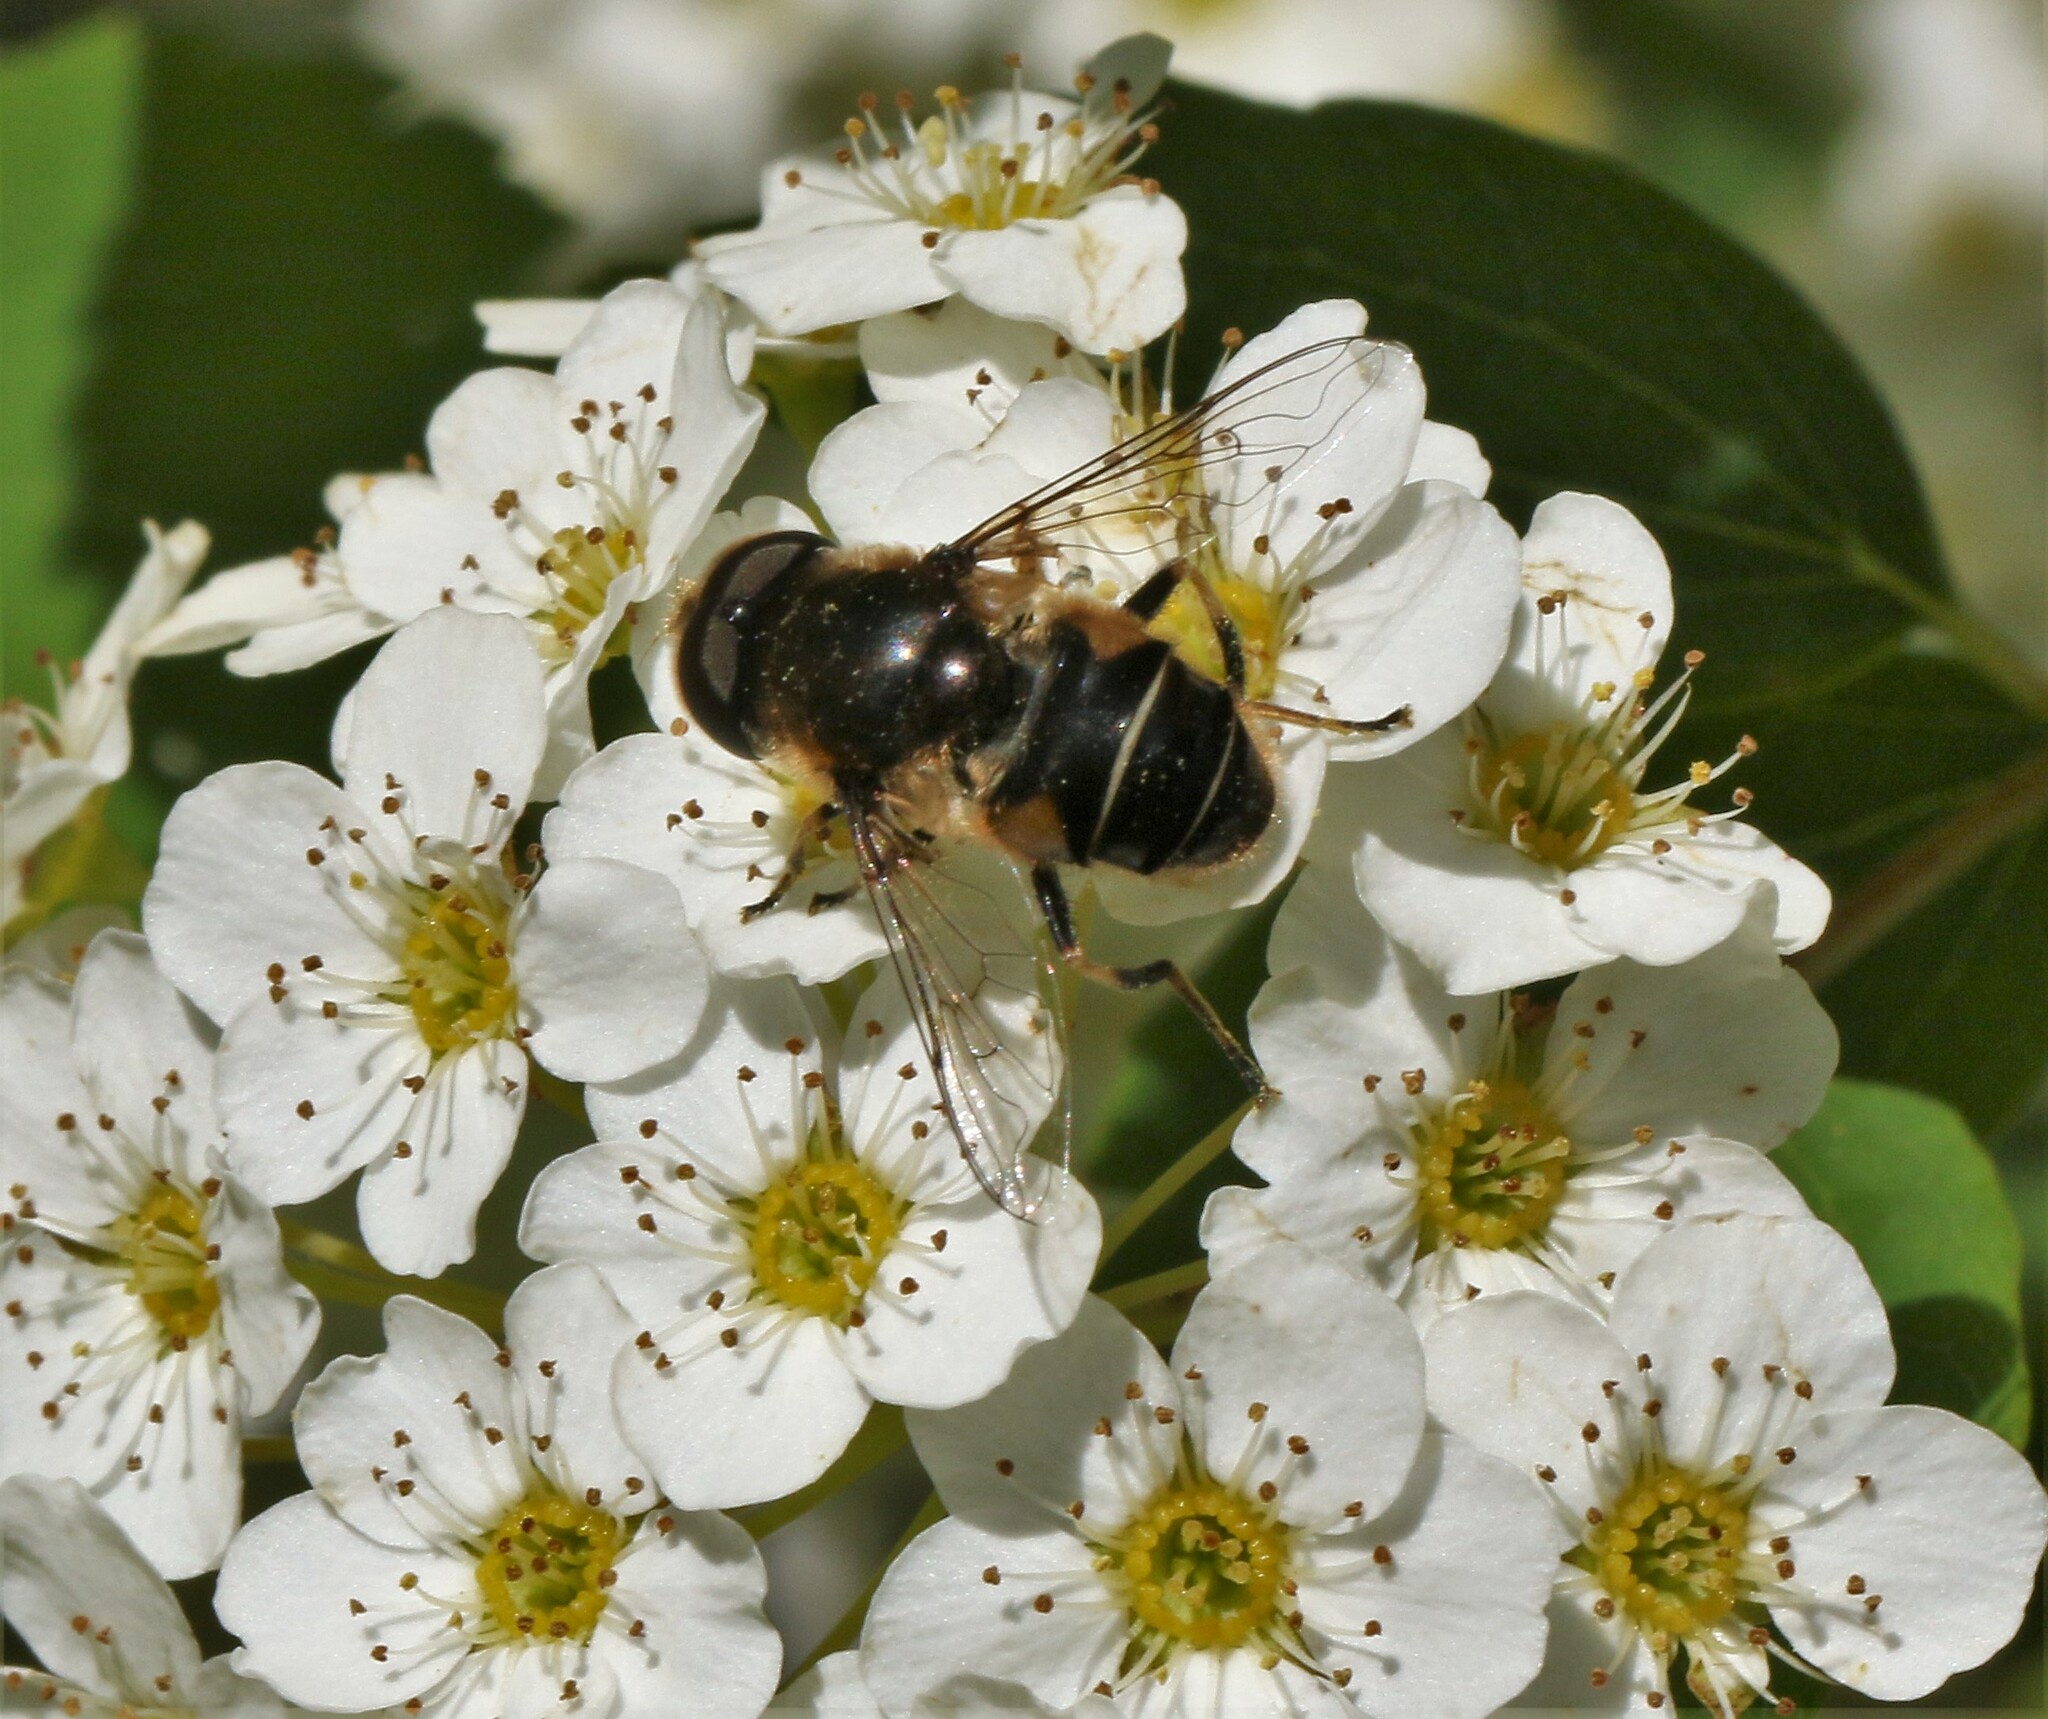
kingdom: Animalia
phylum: Arthropoda
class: Insecta
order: Diptera
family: Syrphidae
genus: Eristalis
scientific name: Eristalis obscura
